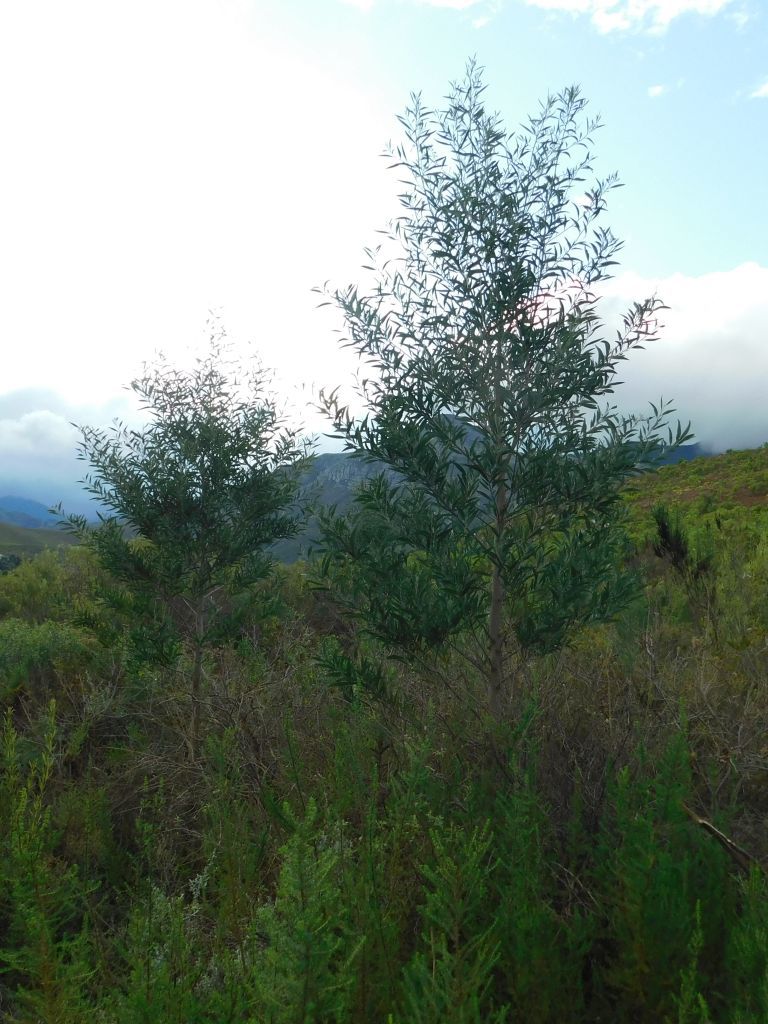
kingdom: Plantae
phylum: Tracheophyta
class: Magnoliopsida
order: Fabales
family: Fabaceae
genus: Acacia
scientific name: Acacia melanoxylon
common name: Blackwood
